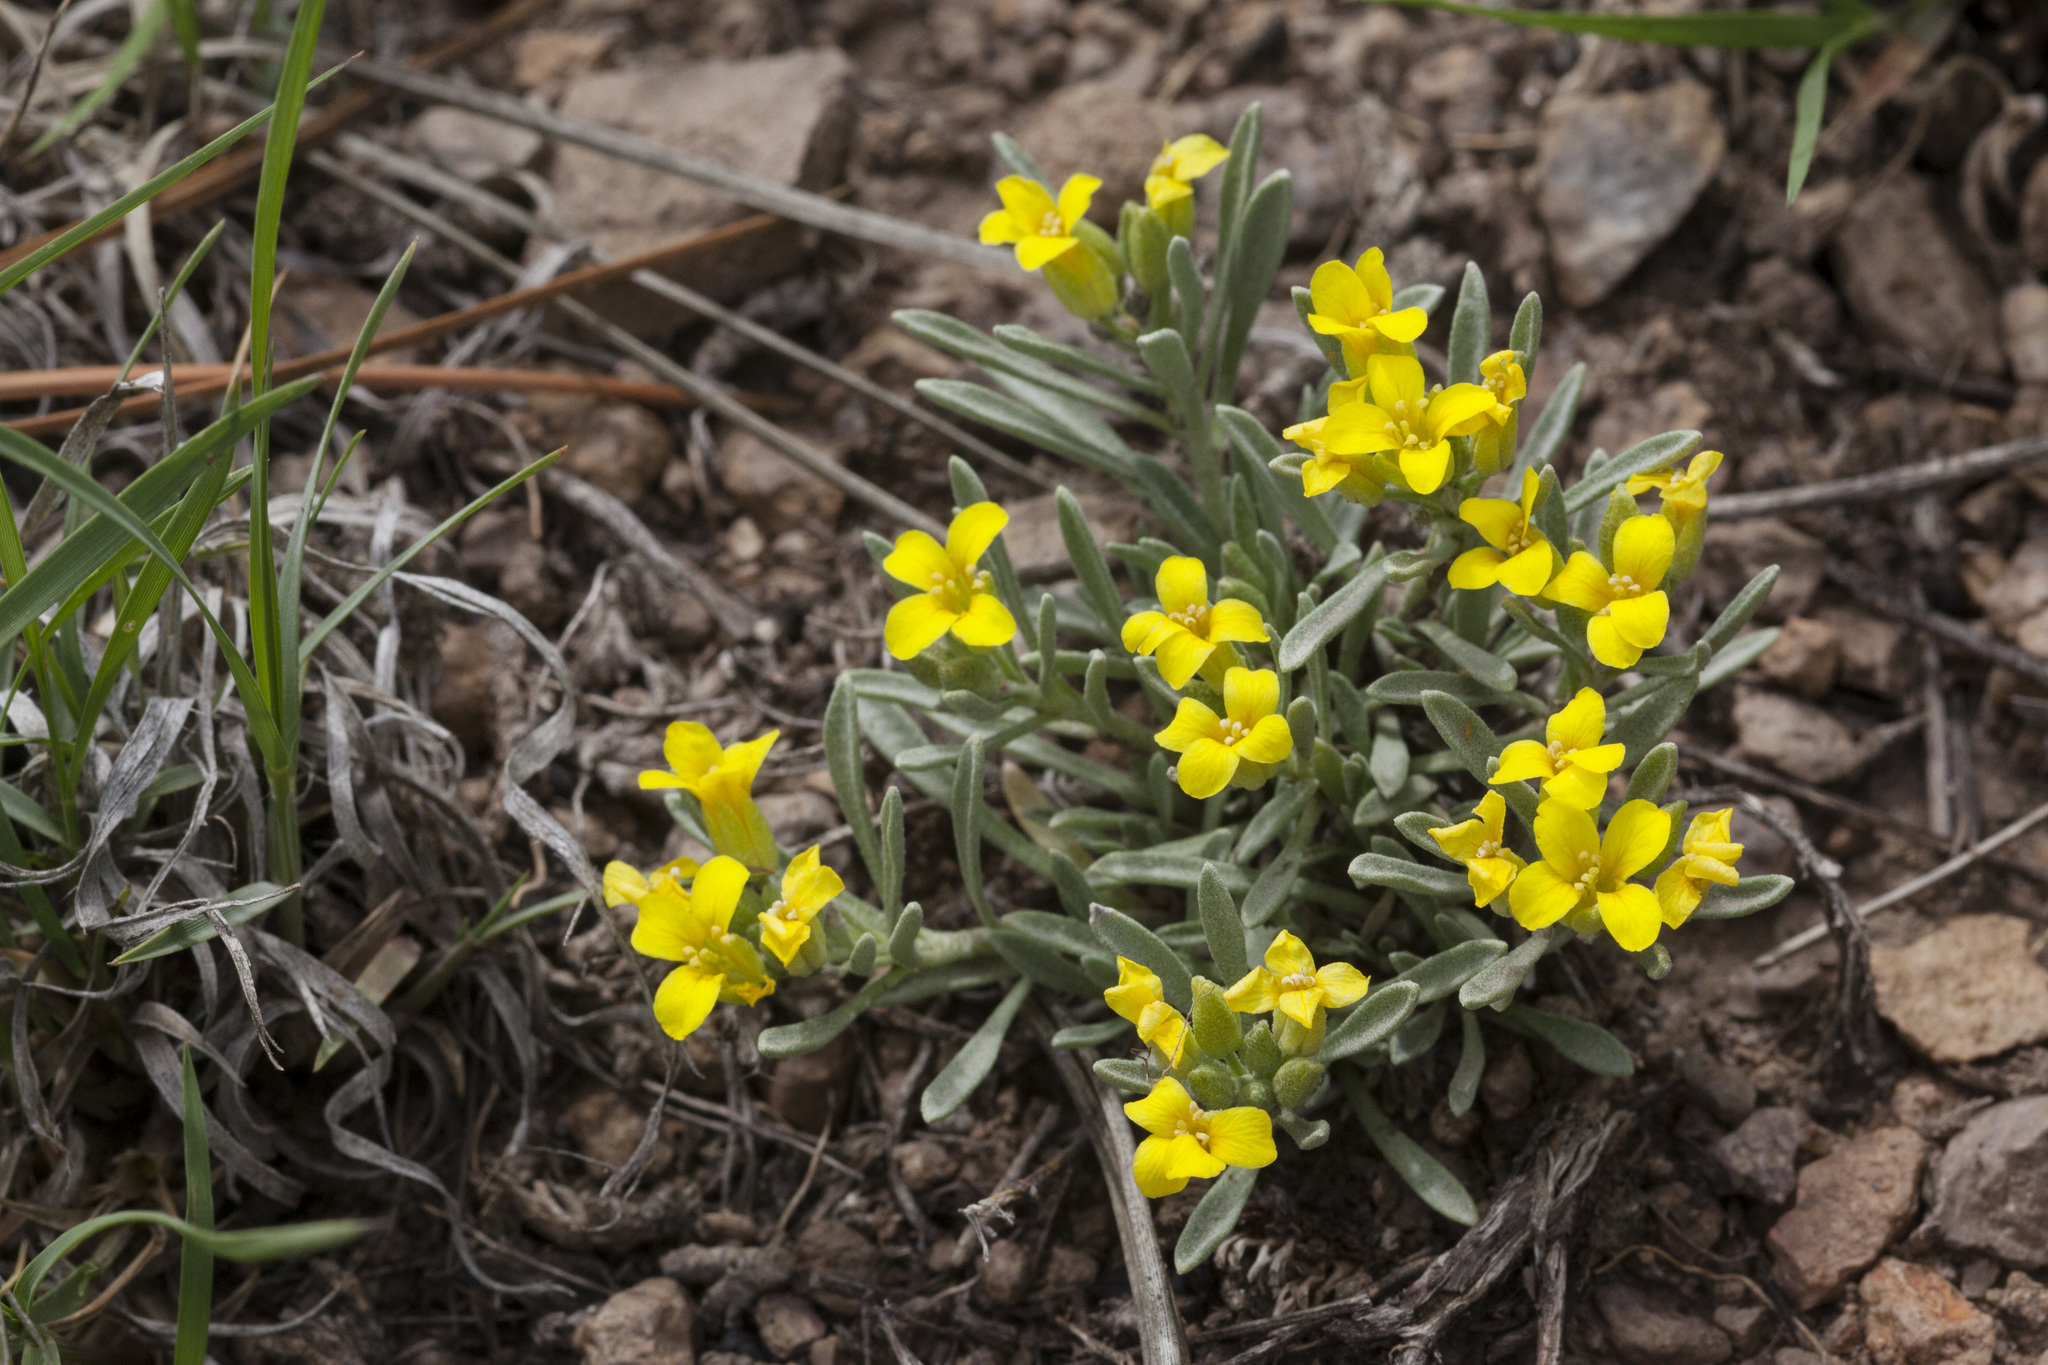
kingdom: Plantae
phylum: Tracheophyta
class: Magnoliopsida
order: Brassicales
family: Brassicaceae
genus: Physaria
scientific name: Physaria intermedia
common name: Watson's bladderpod
